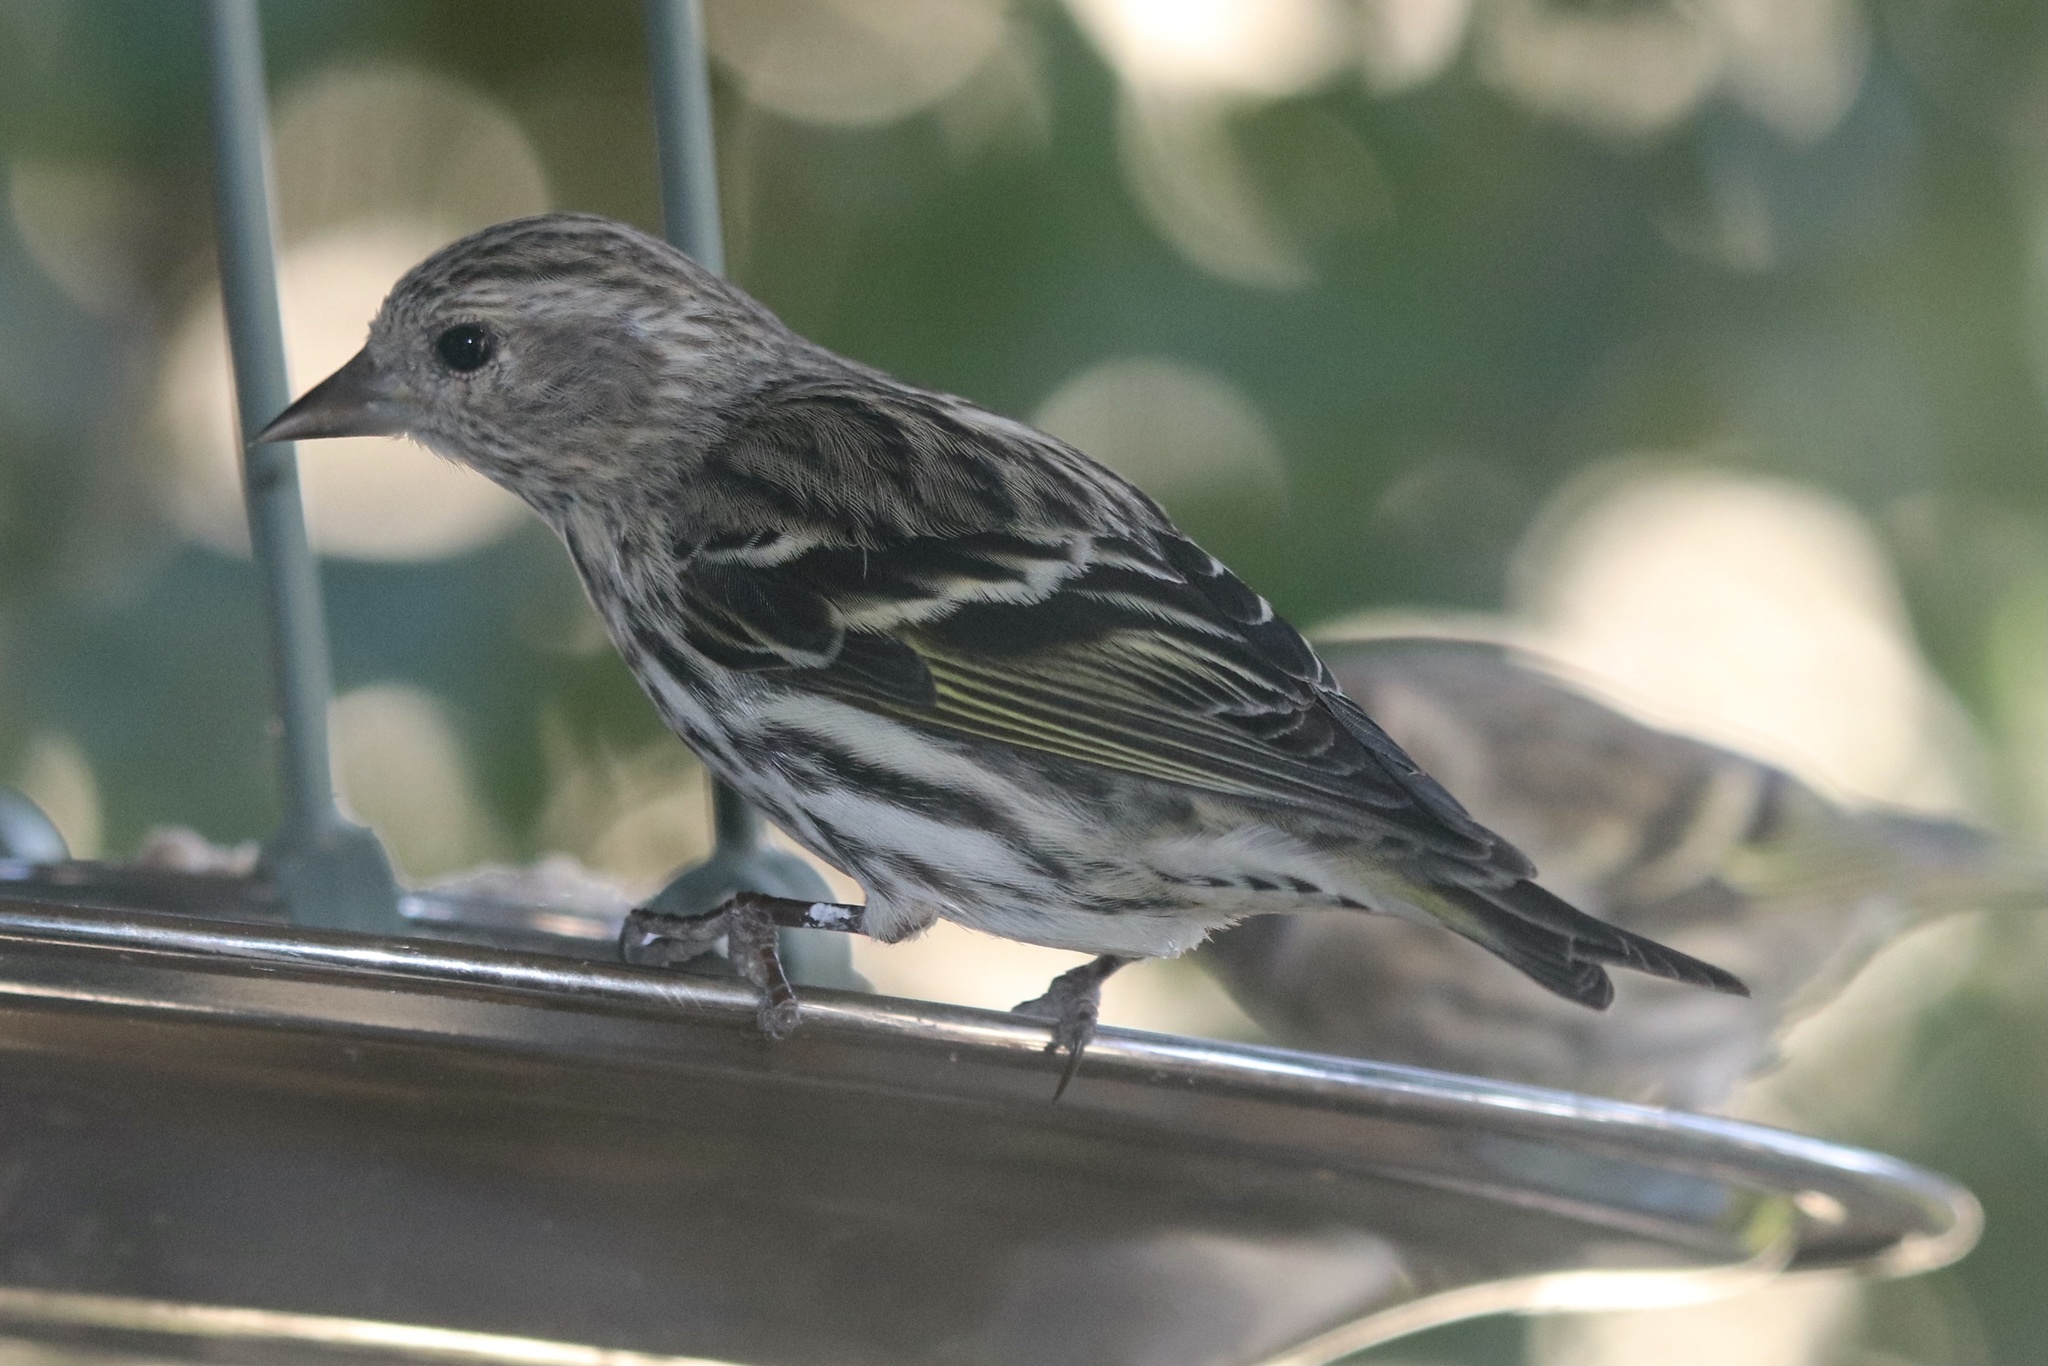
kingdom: Animalia
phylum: Chordata
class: Aves
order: Passeriformes
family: Fringillidae
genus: Spinus
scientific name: Spinus pinus
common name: Pine siskin
